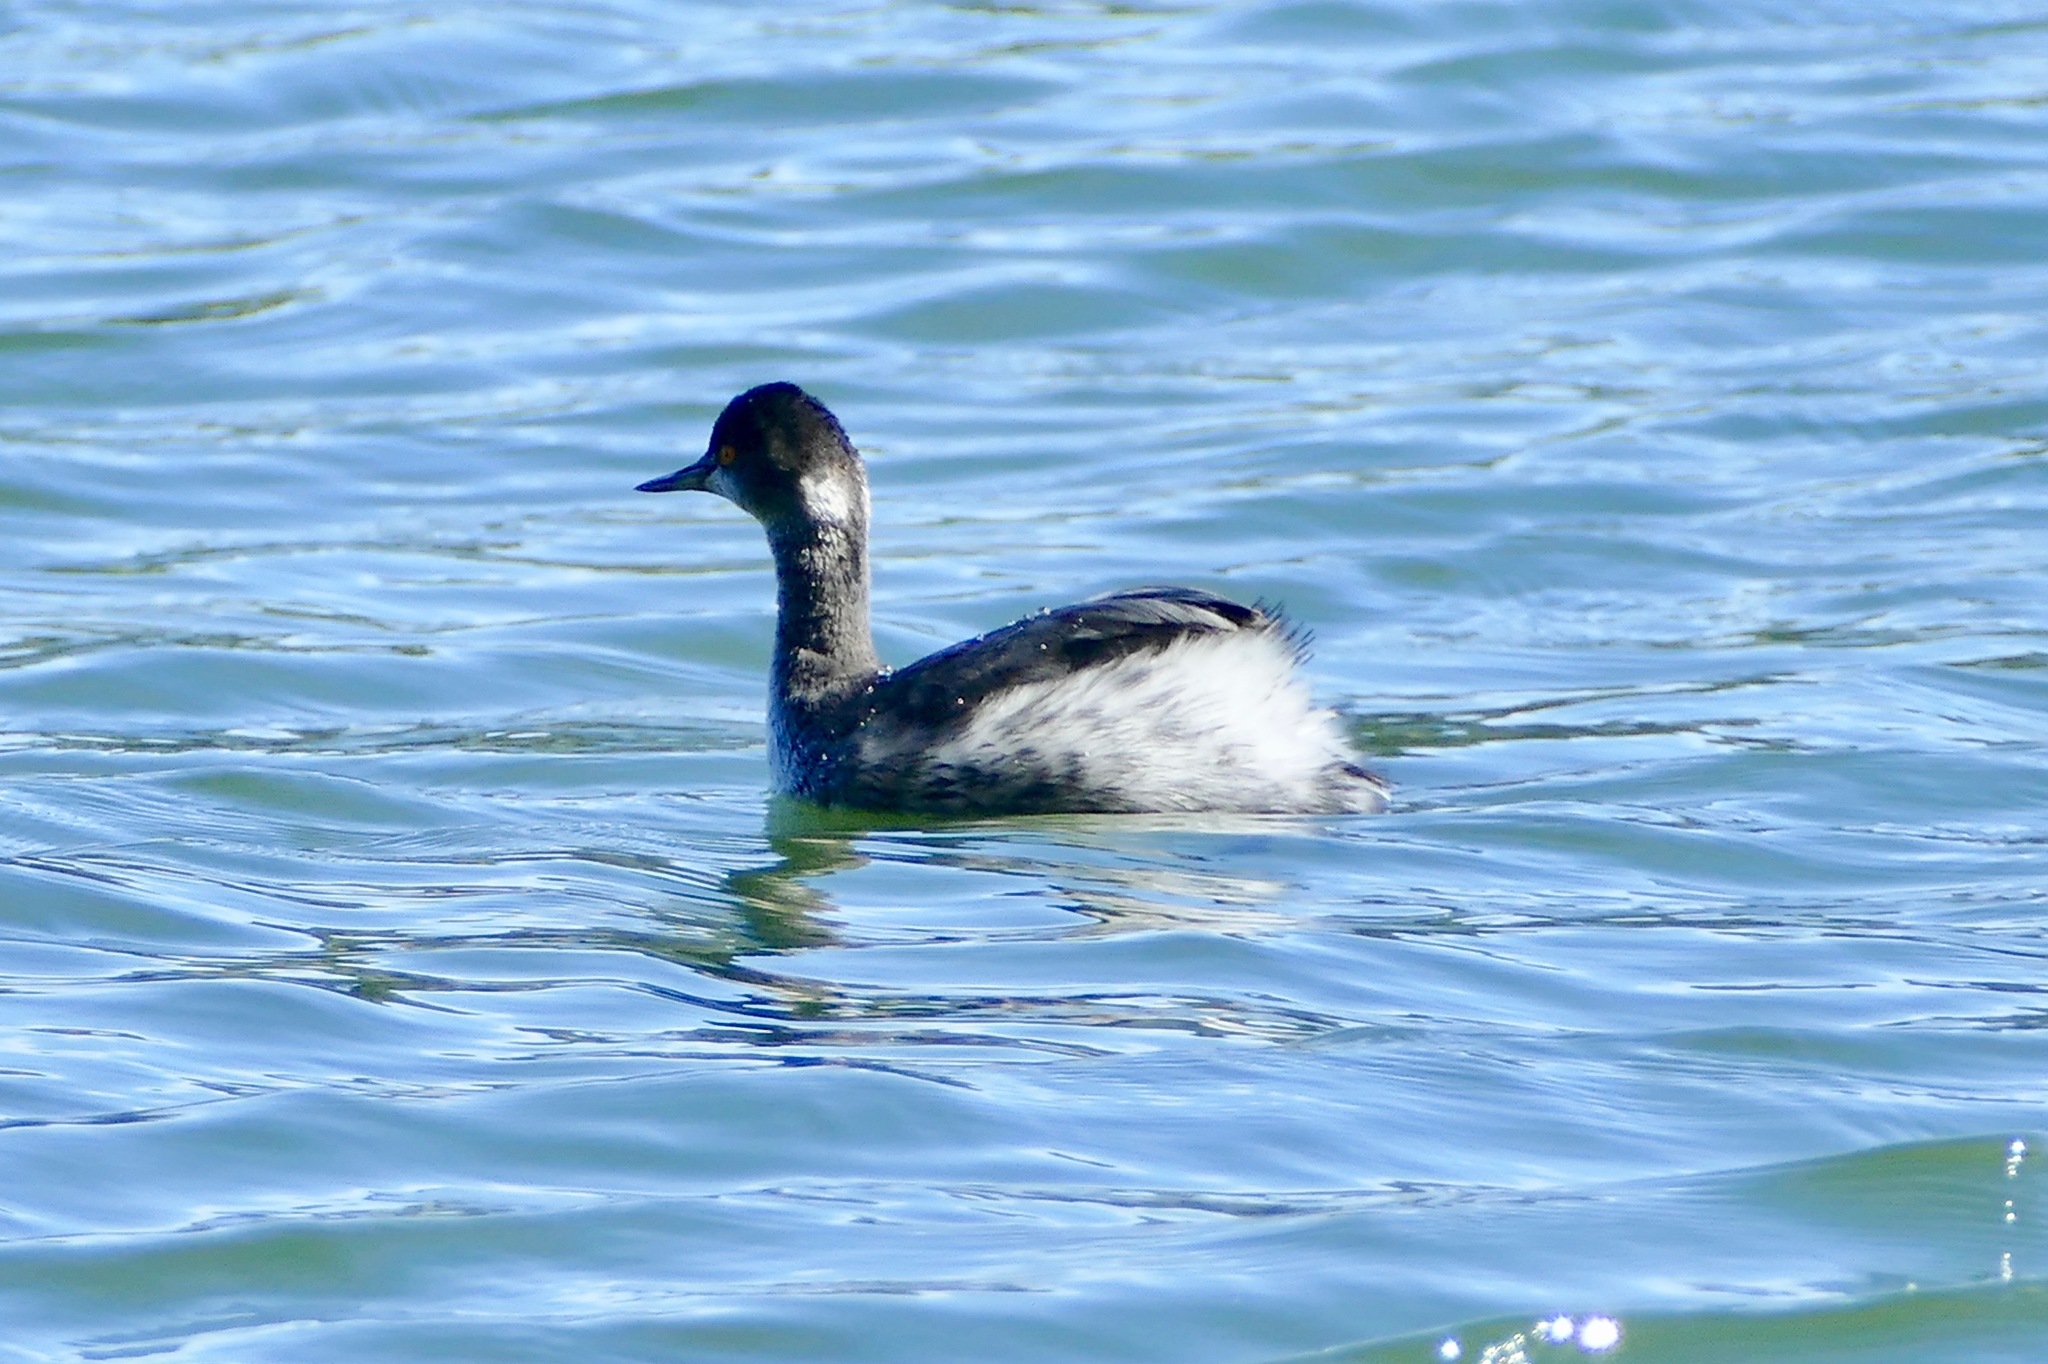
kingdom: Animalia
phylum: Chordata
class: Aves
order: Podicipediformes
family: Podicipedidae
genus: Podiceps
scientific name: Podiceps nigricollis
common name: Black-necked grebe
